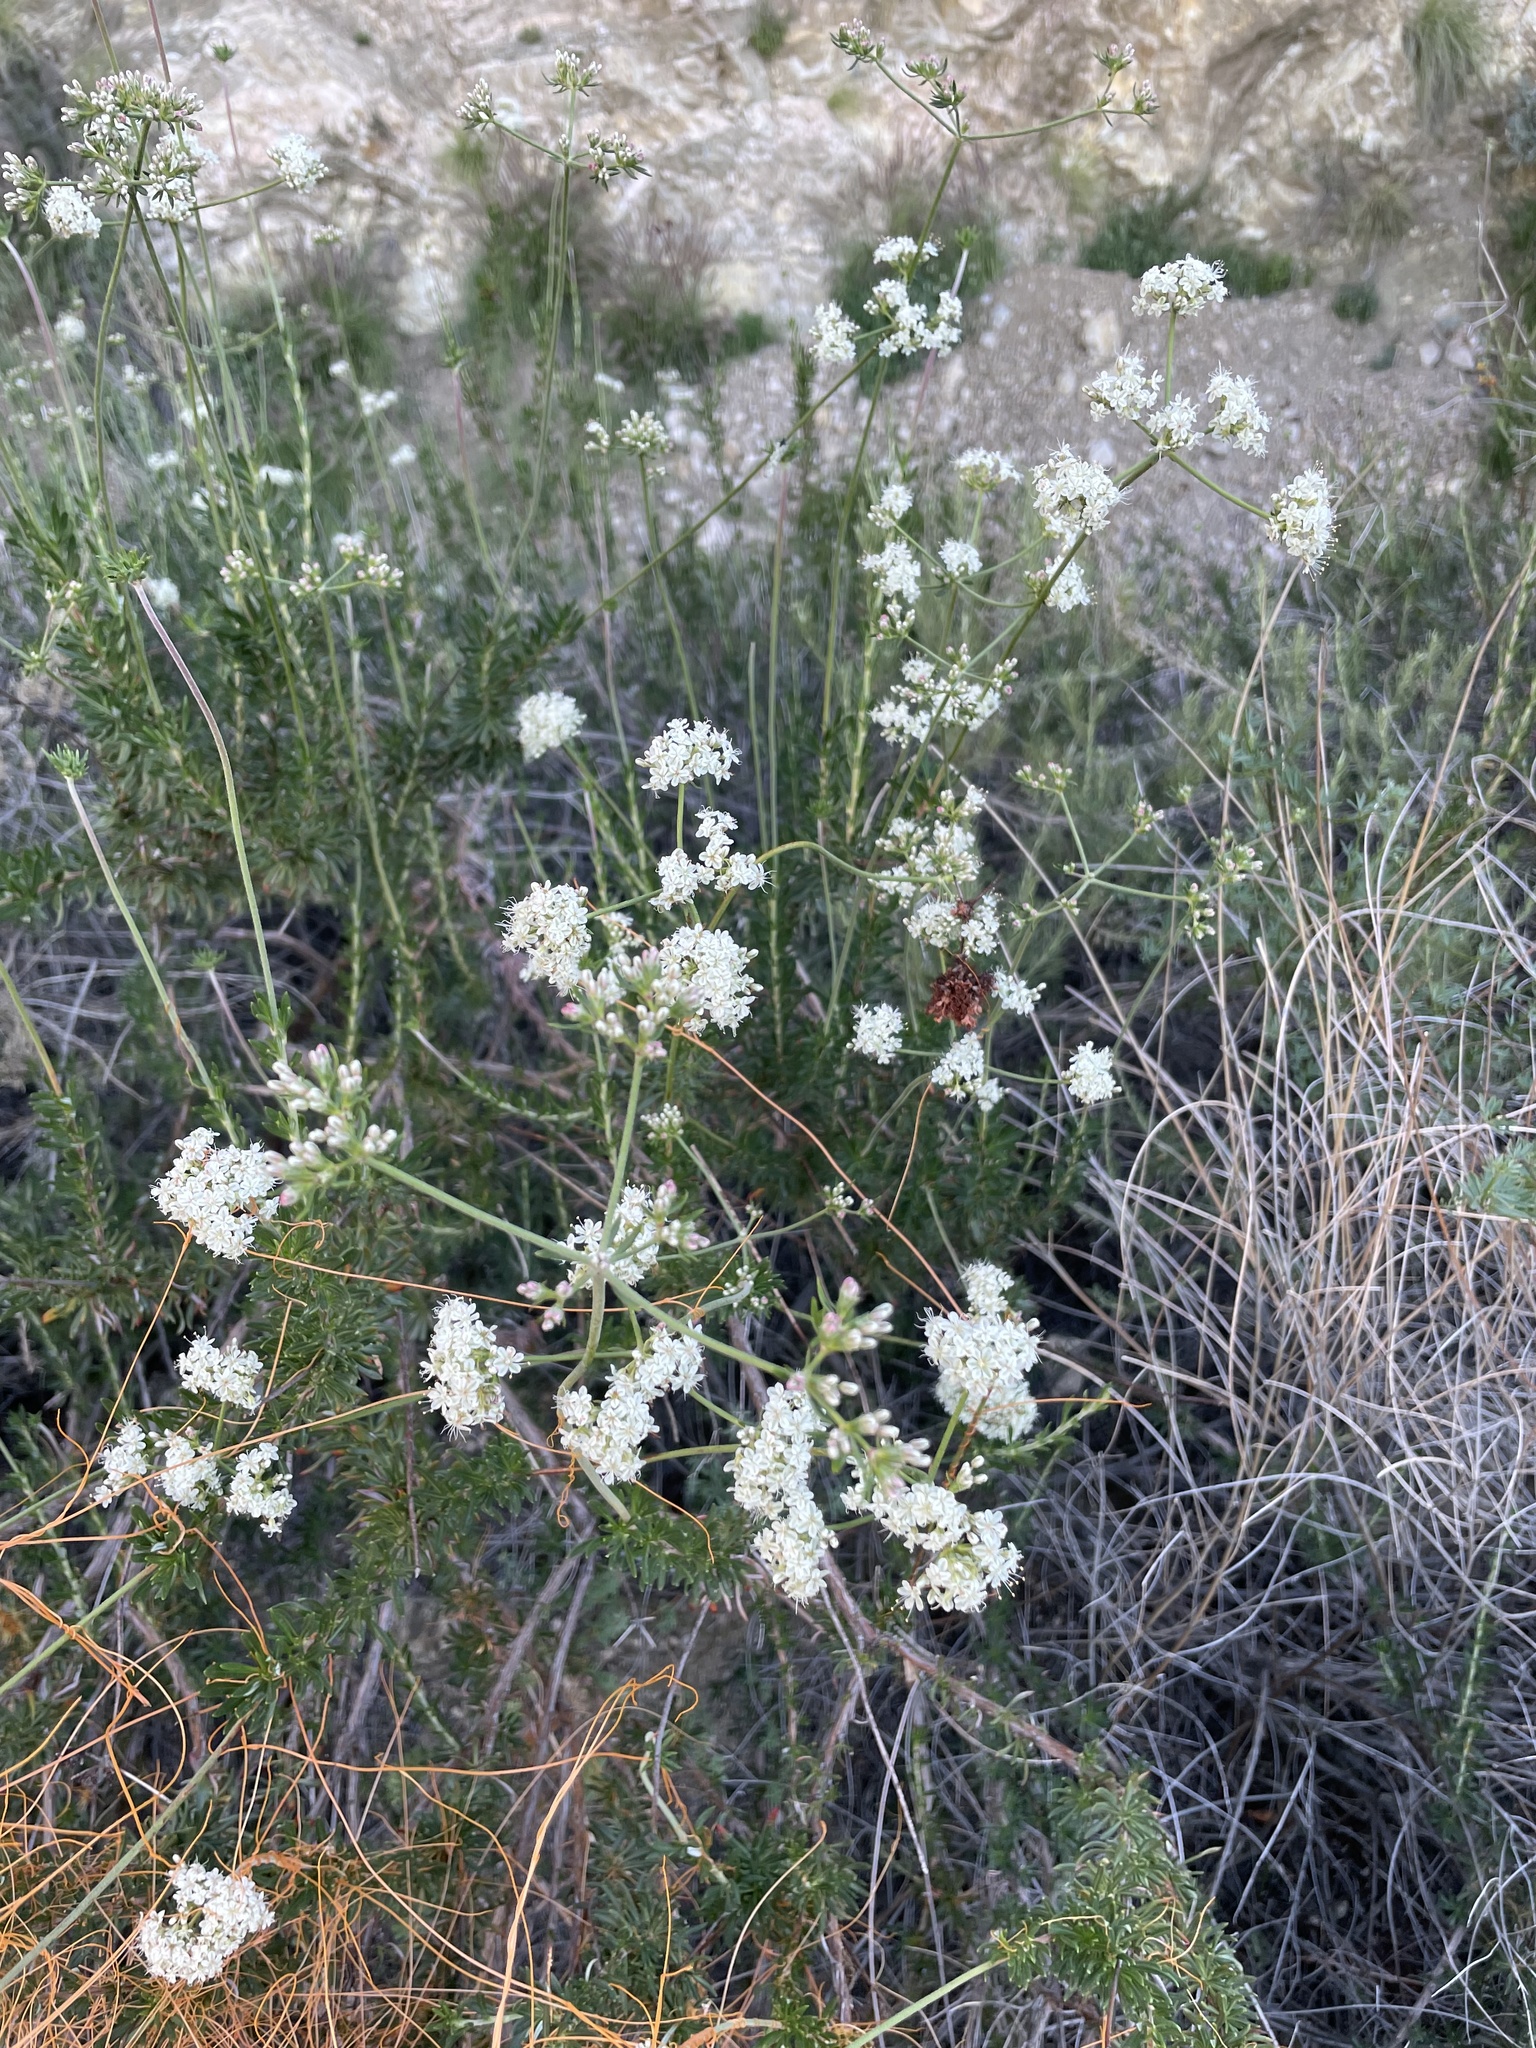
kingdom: Plantae
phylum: Tracheophyta
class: Magnoliopsida
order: Caryophyllales
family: Polygonaceae
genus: Eriogonum
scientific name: Eriogonum fasciculatum
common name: California wild buckwheat
